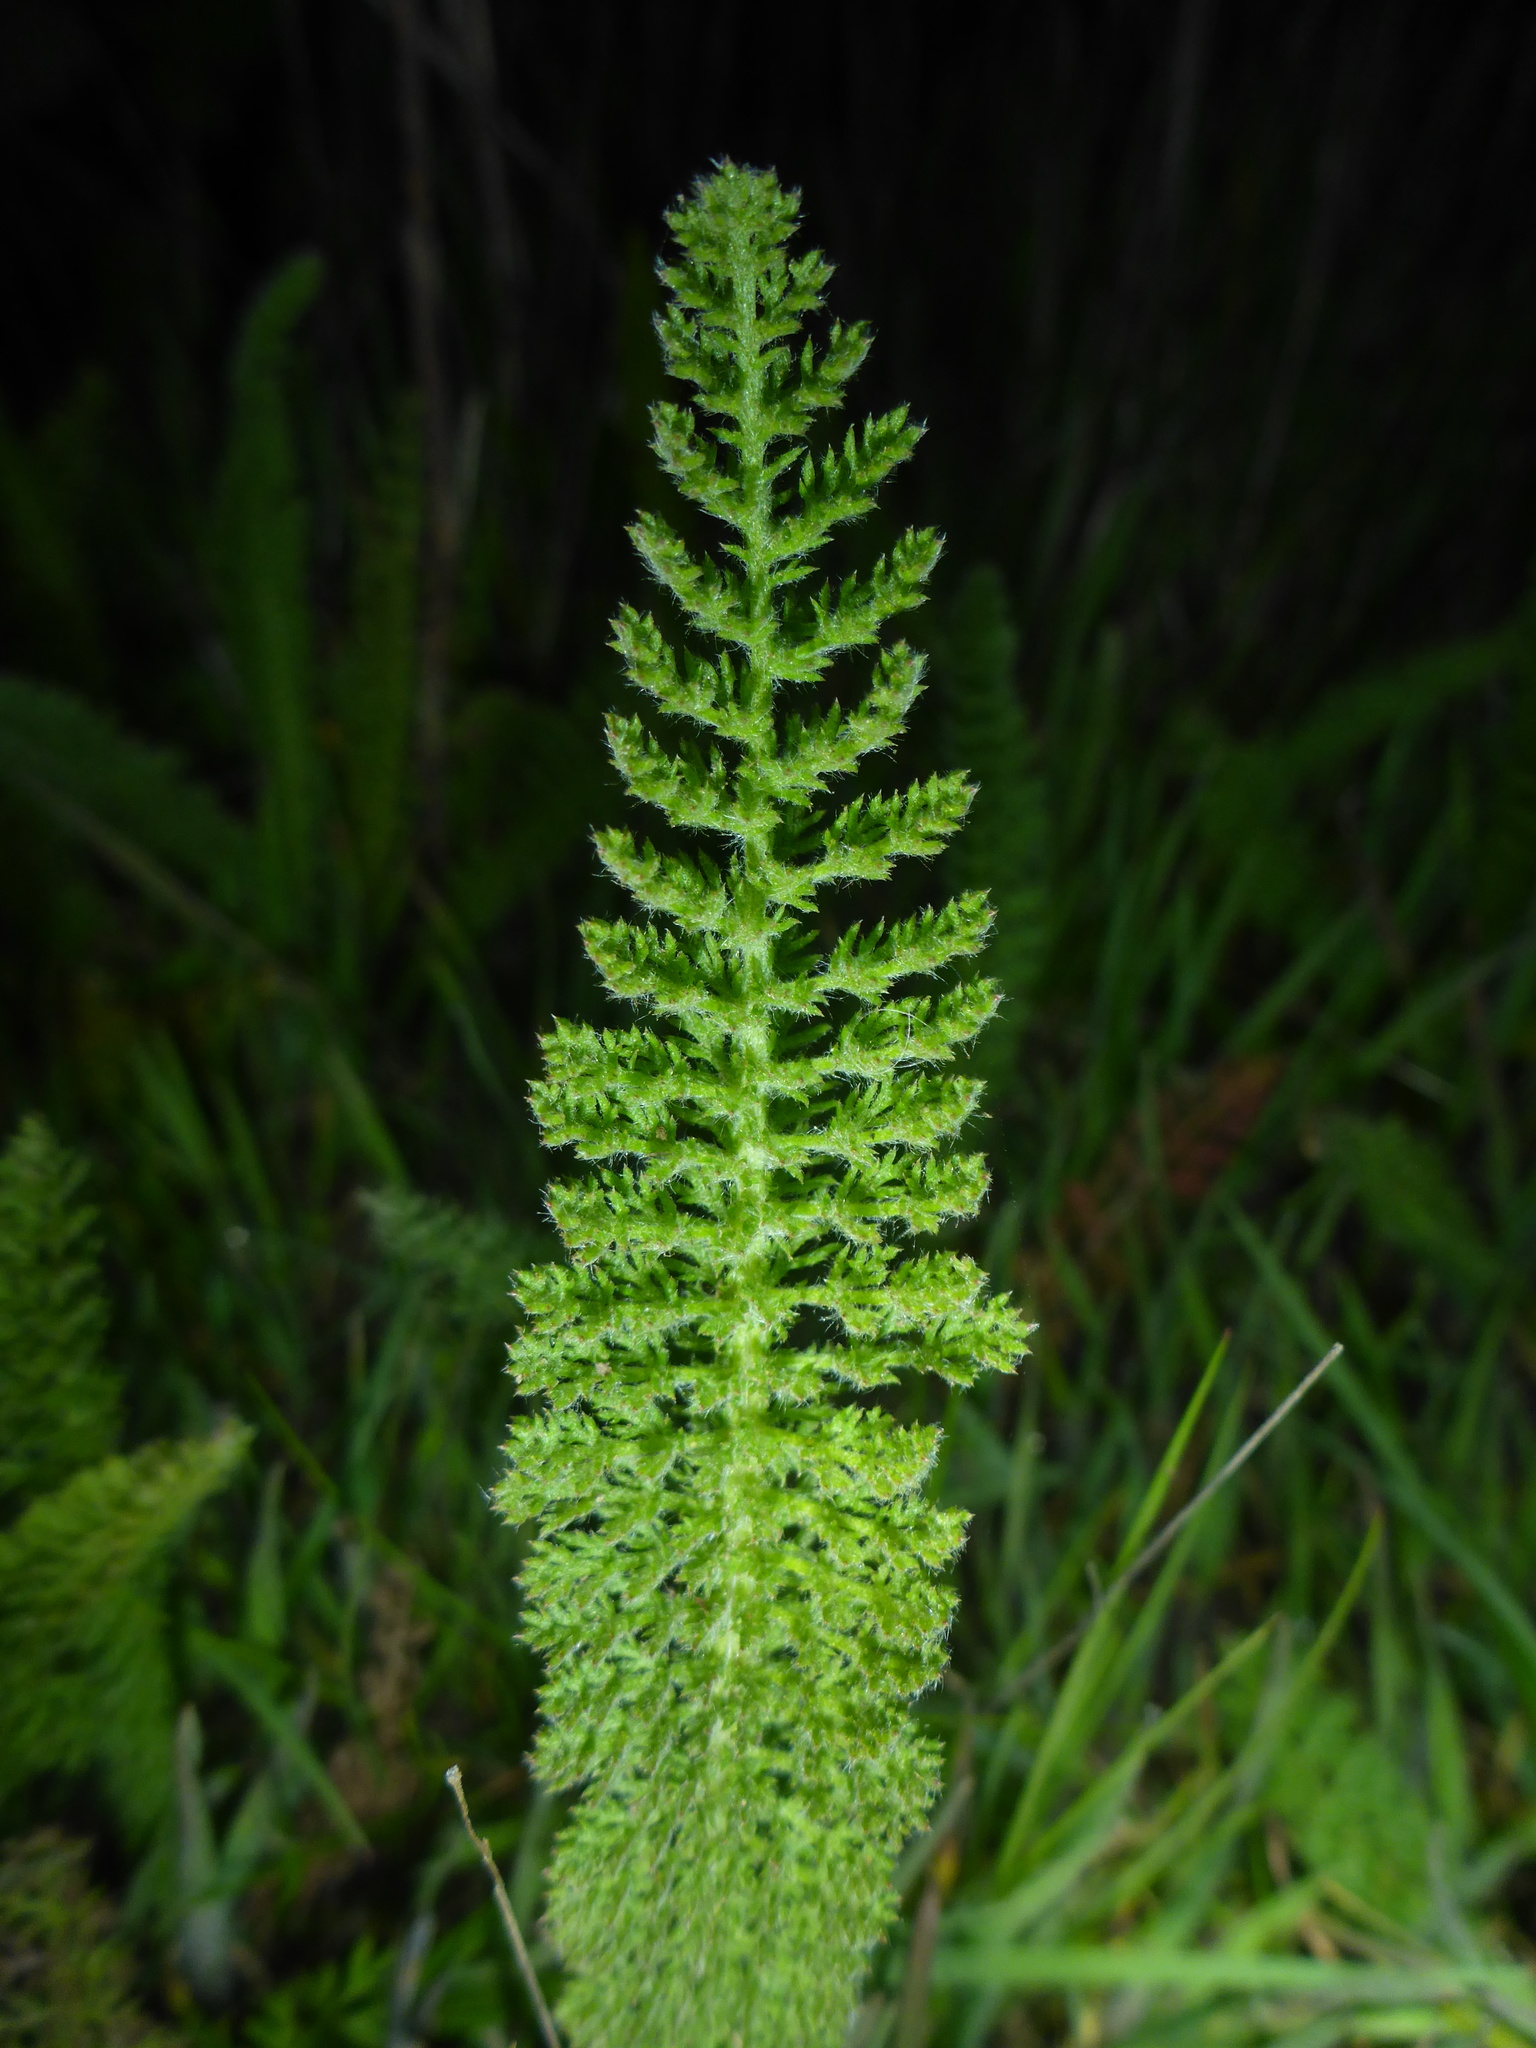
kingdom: Plantae
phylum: Tracheophyta
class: Magnoliopsida
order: Asterales
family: Asteraceae
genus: Achillea
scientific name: Achillea millefolium
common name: Yarrow
